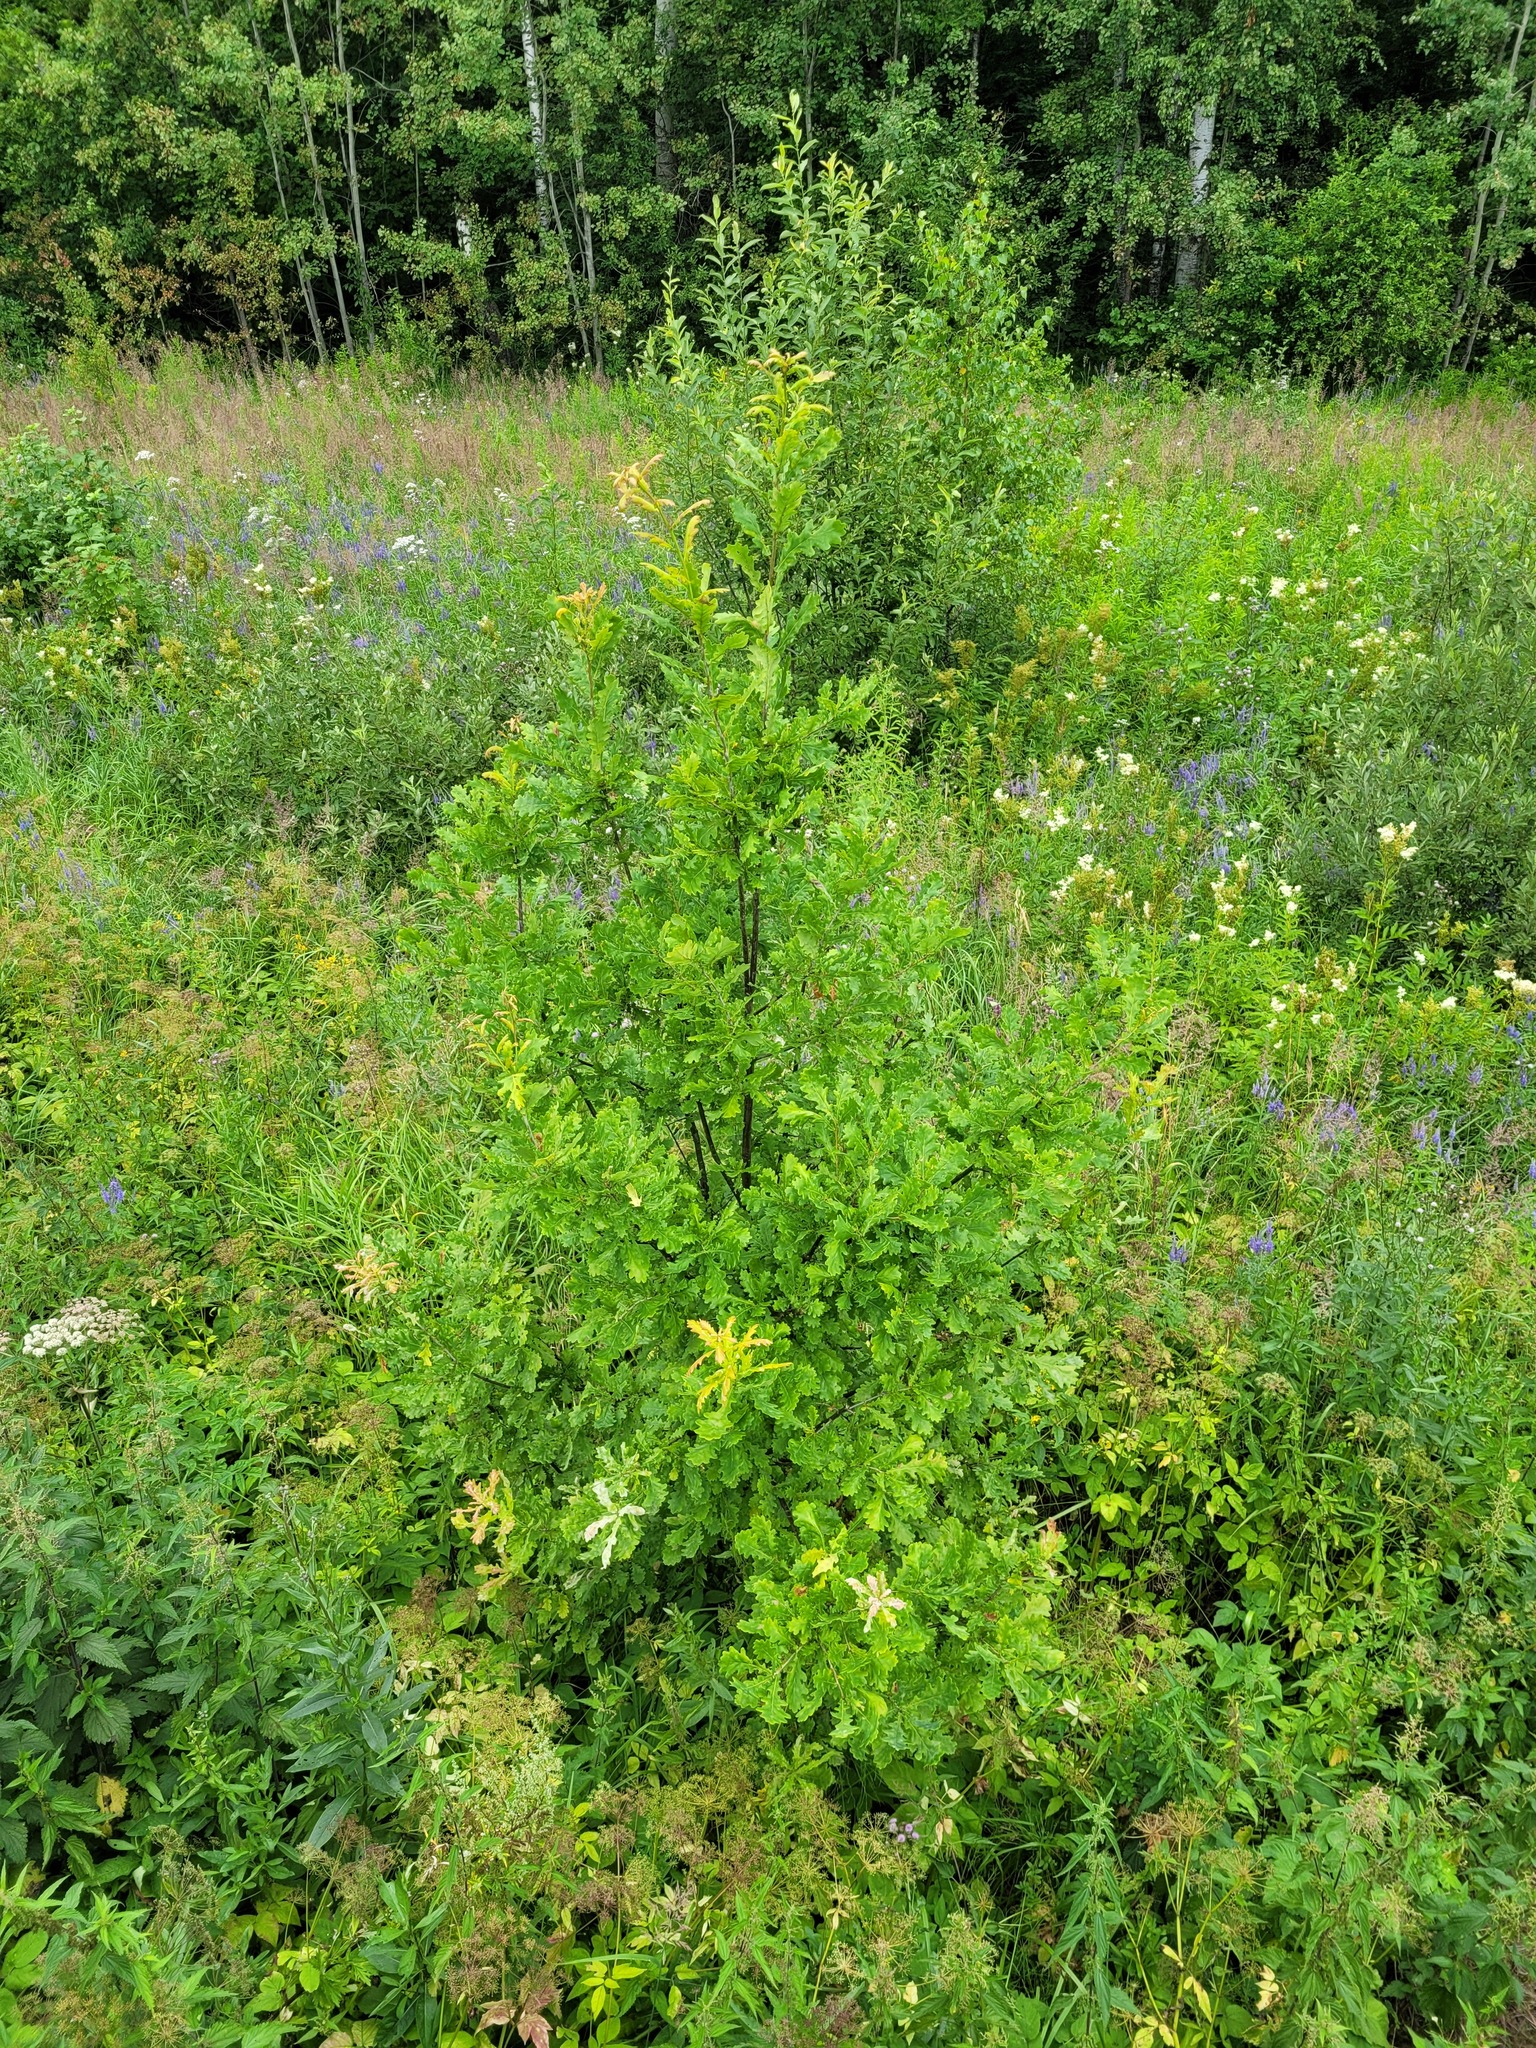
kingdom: Plantae
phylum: Tracheophyta
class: Magnoliopsida
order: Fagales
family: Fagaceae
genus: Quercus
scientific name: Quercus robur
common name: Pedunculate oak
